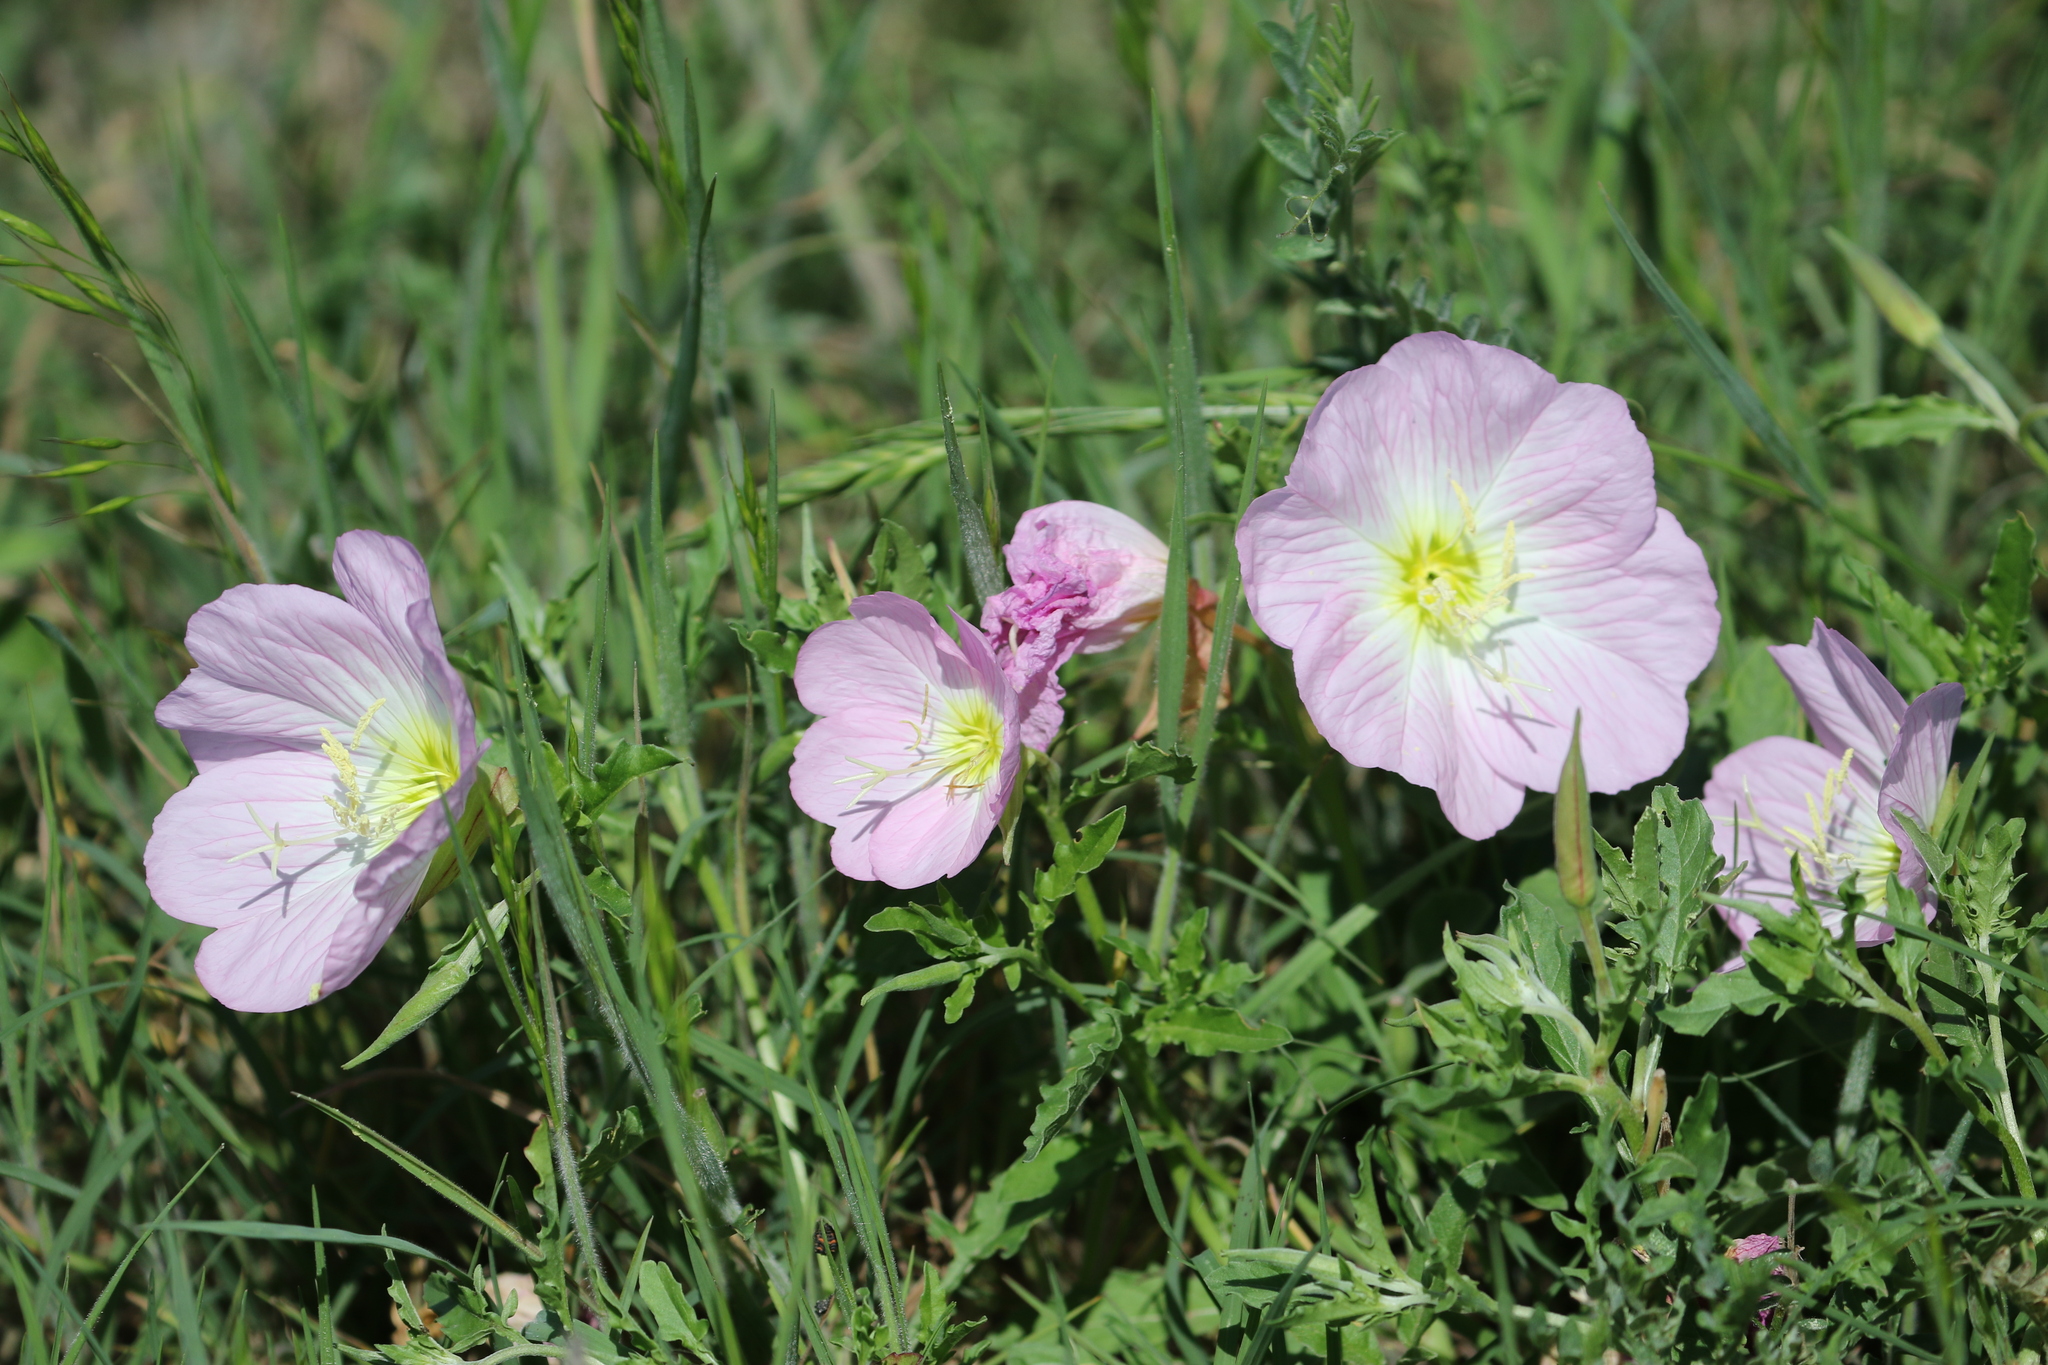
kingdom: Plantae
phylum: Tracheophyta
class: Magnoliopsida
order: Myrtales
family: Onagraceae
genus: Oenothera
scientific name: Oenothera speciosa
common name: White evening-primrose
